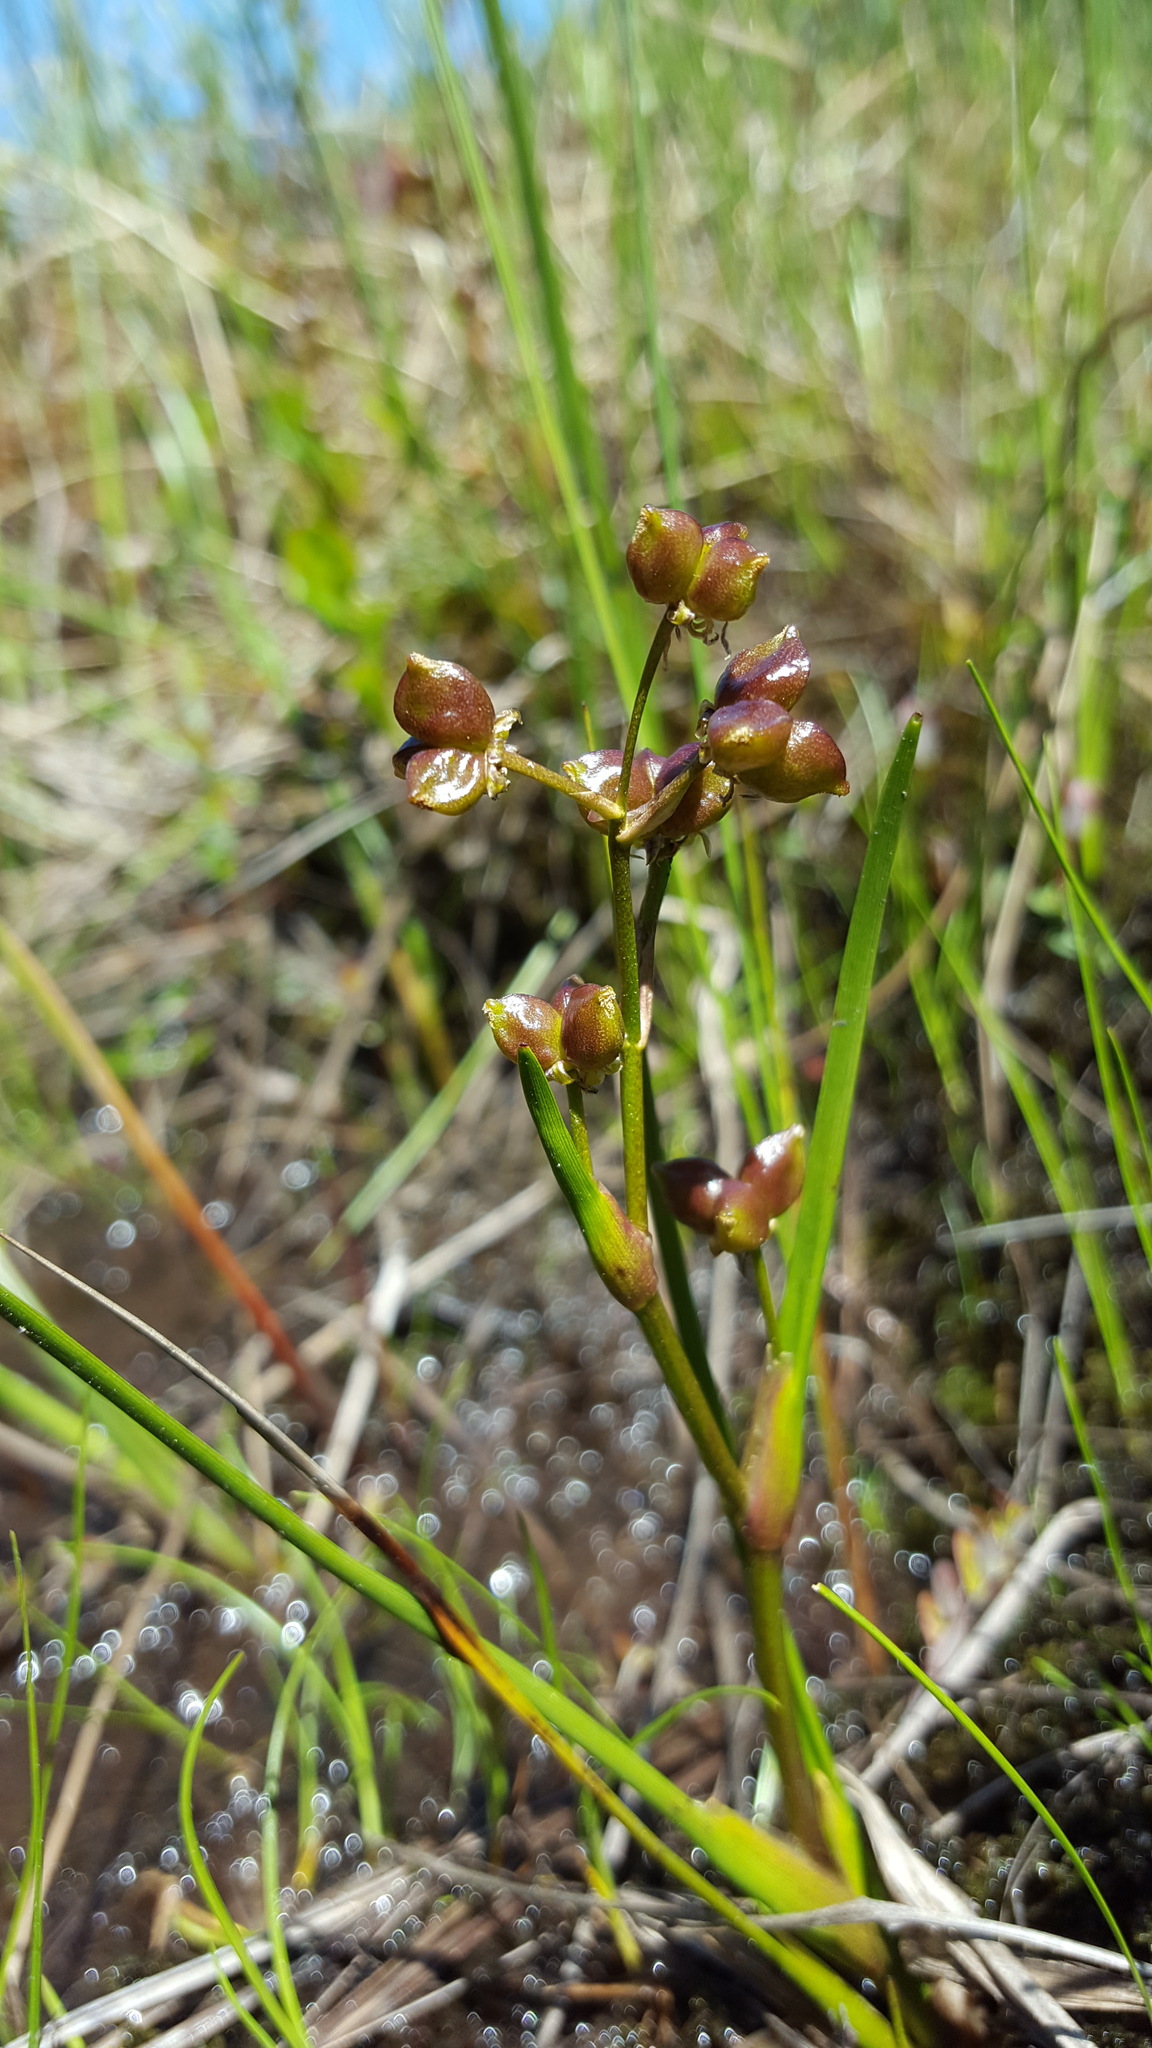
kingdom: Plantae
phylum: Tracheophyta
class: Liliopsida
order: Alismatales
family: Scheuchzeriaceae
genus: Scheuchzeria
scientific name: Scheuchzeria palustris
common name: Rannoch-rush
